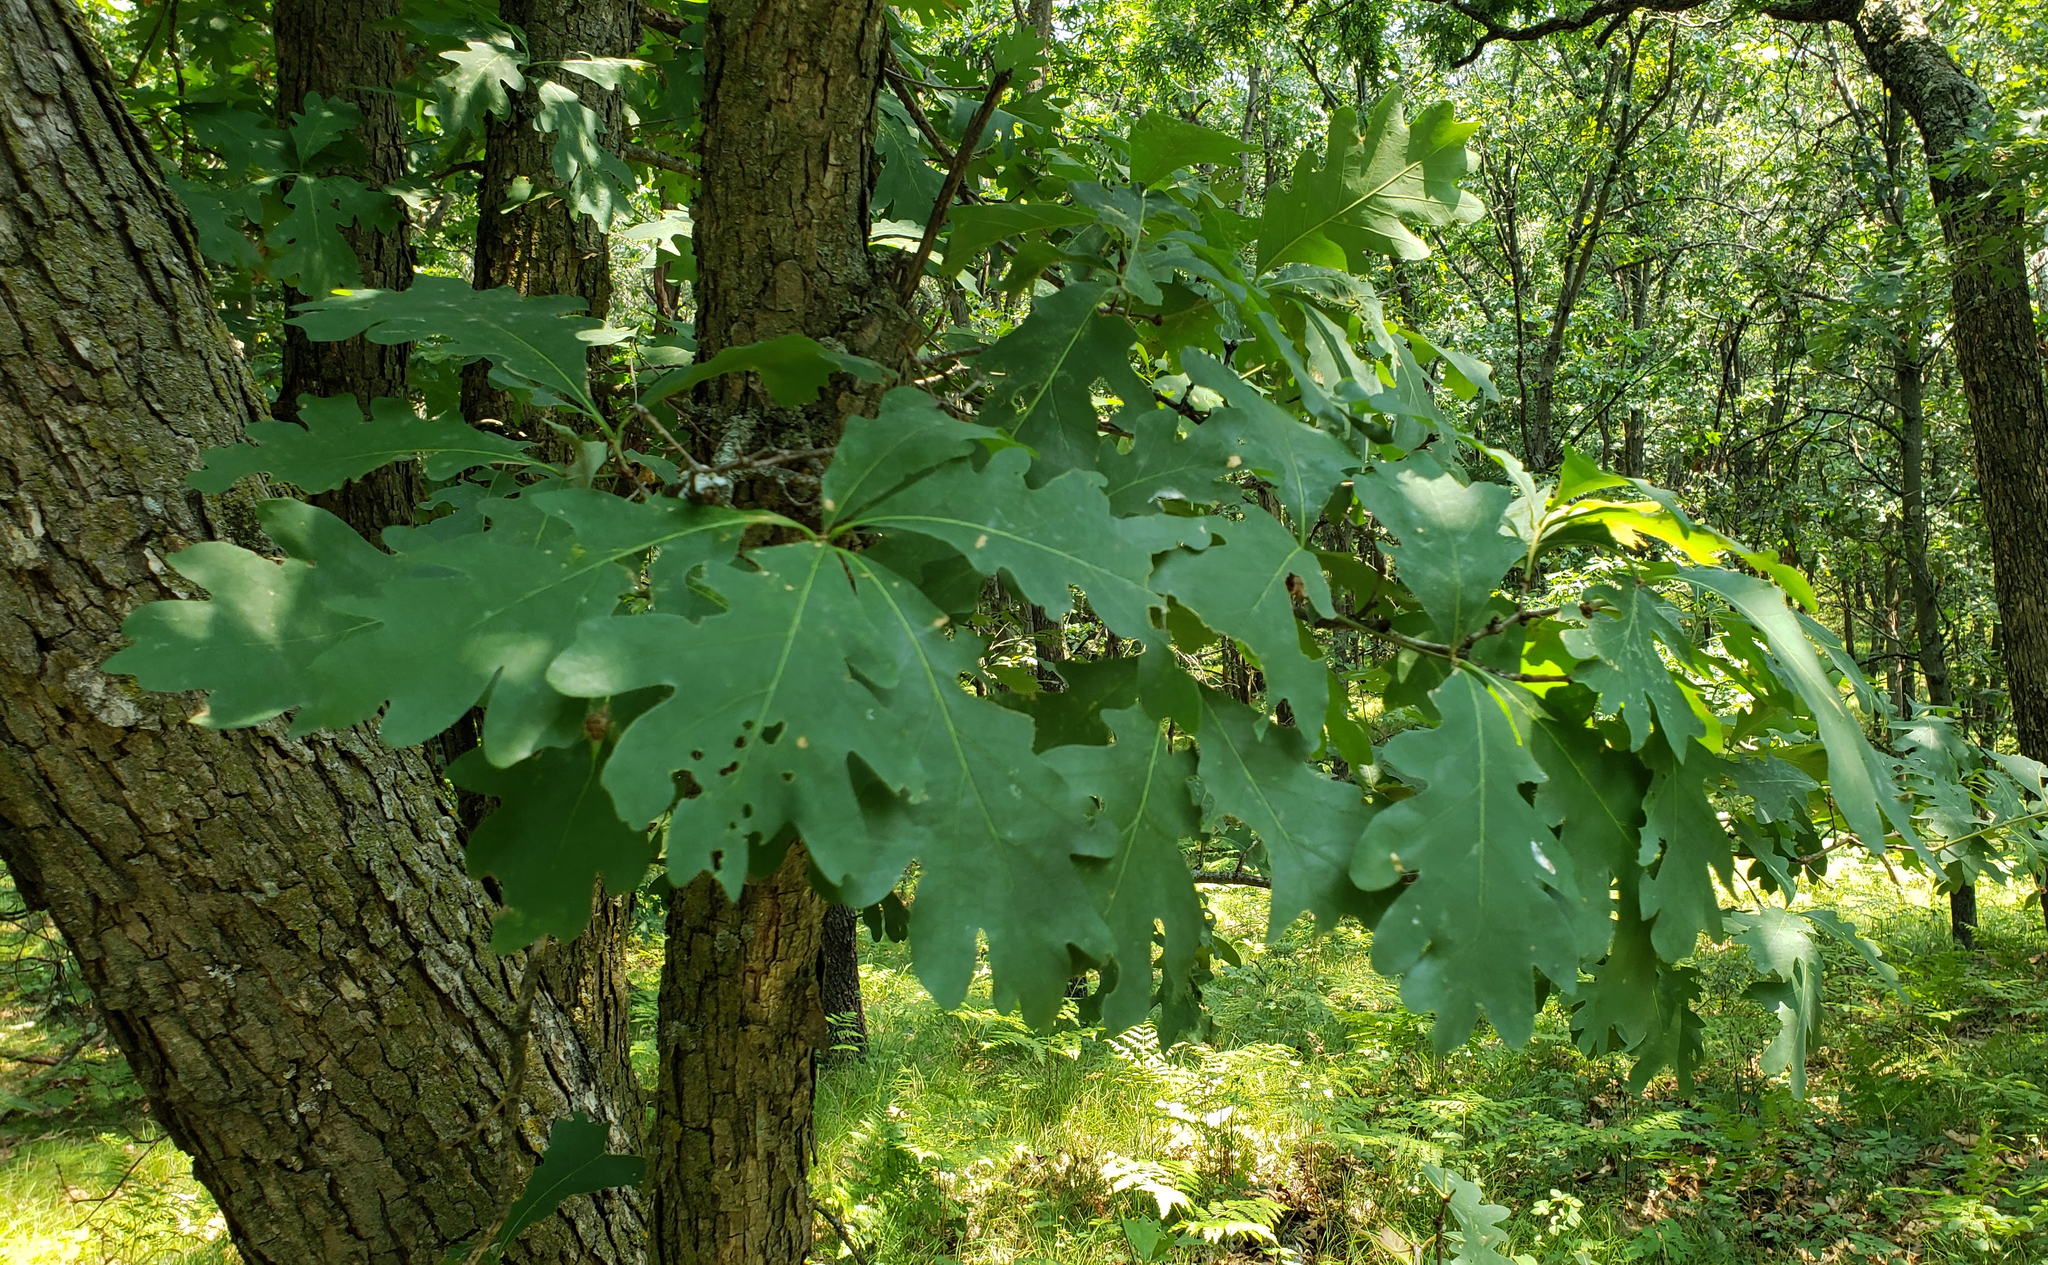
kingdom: Plantae
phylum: Tracheophyta
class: Magnoliopsida
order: Fagales
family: Fagaceae
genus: Quercus
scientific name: Quercus alba
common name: White oak
